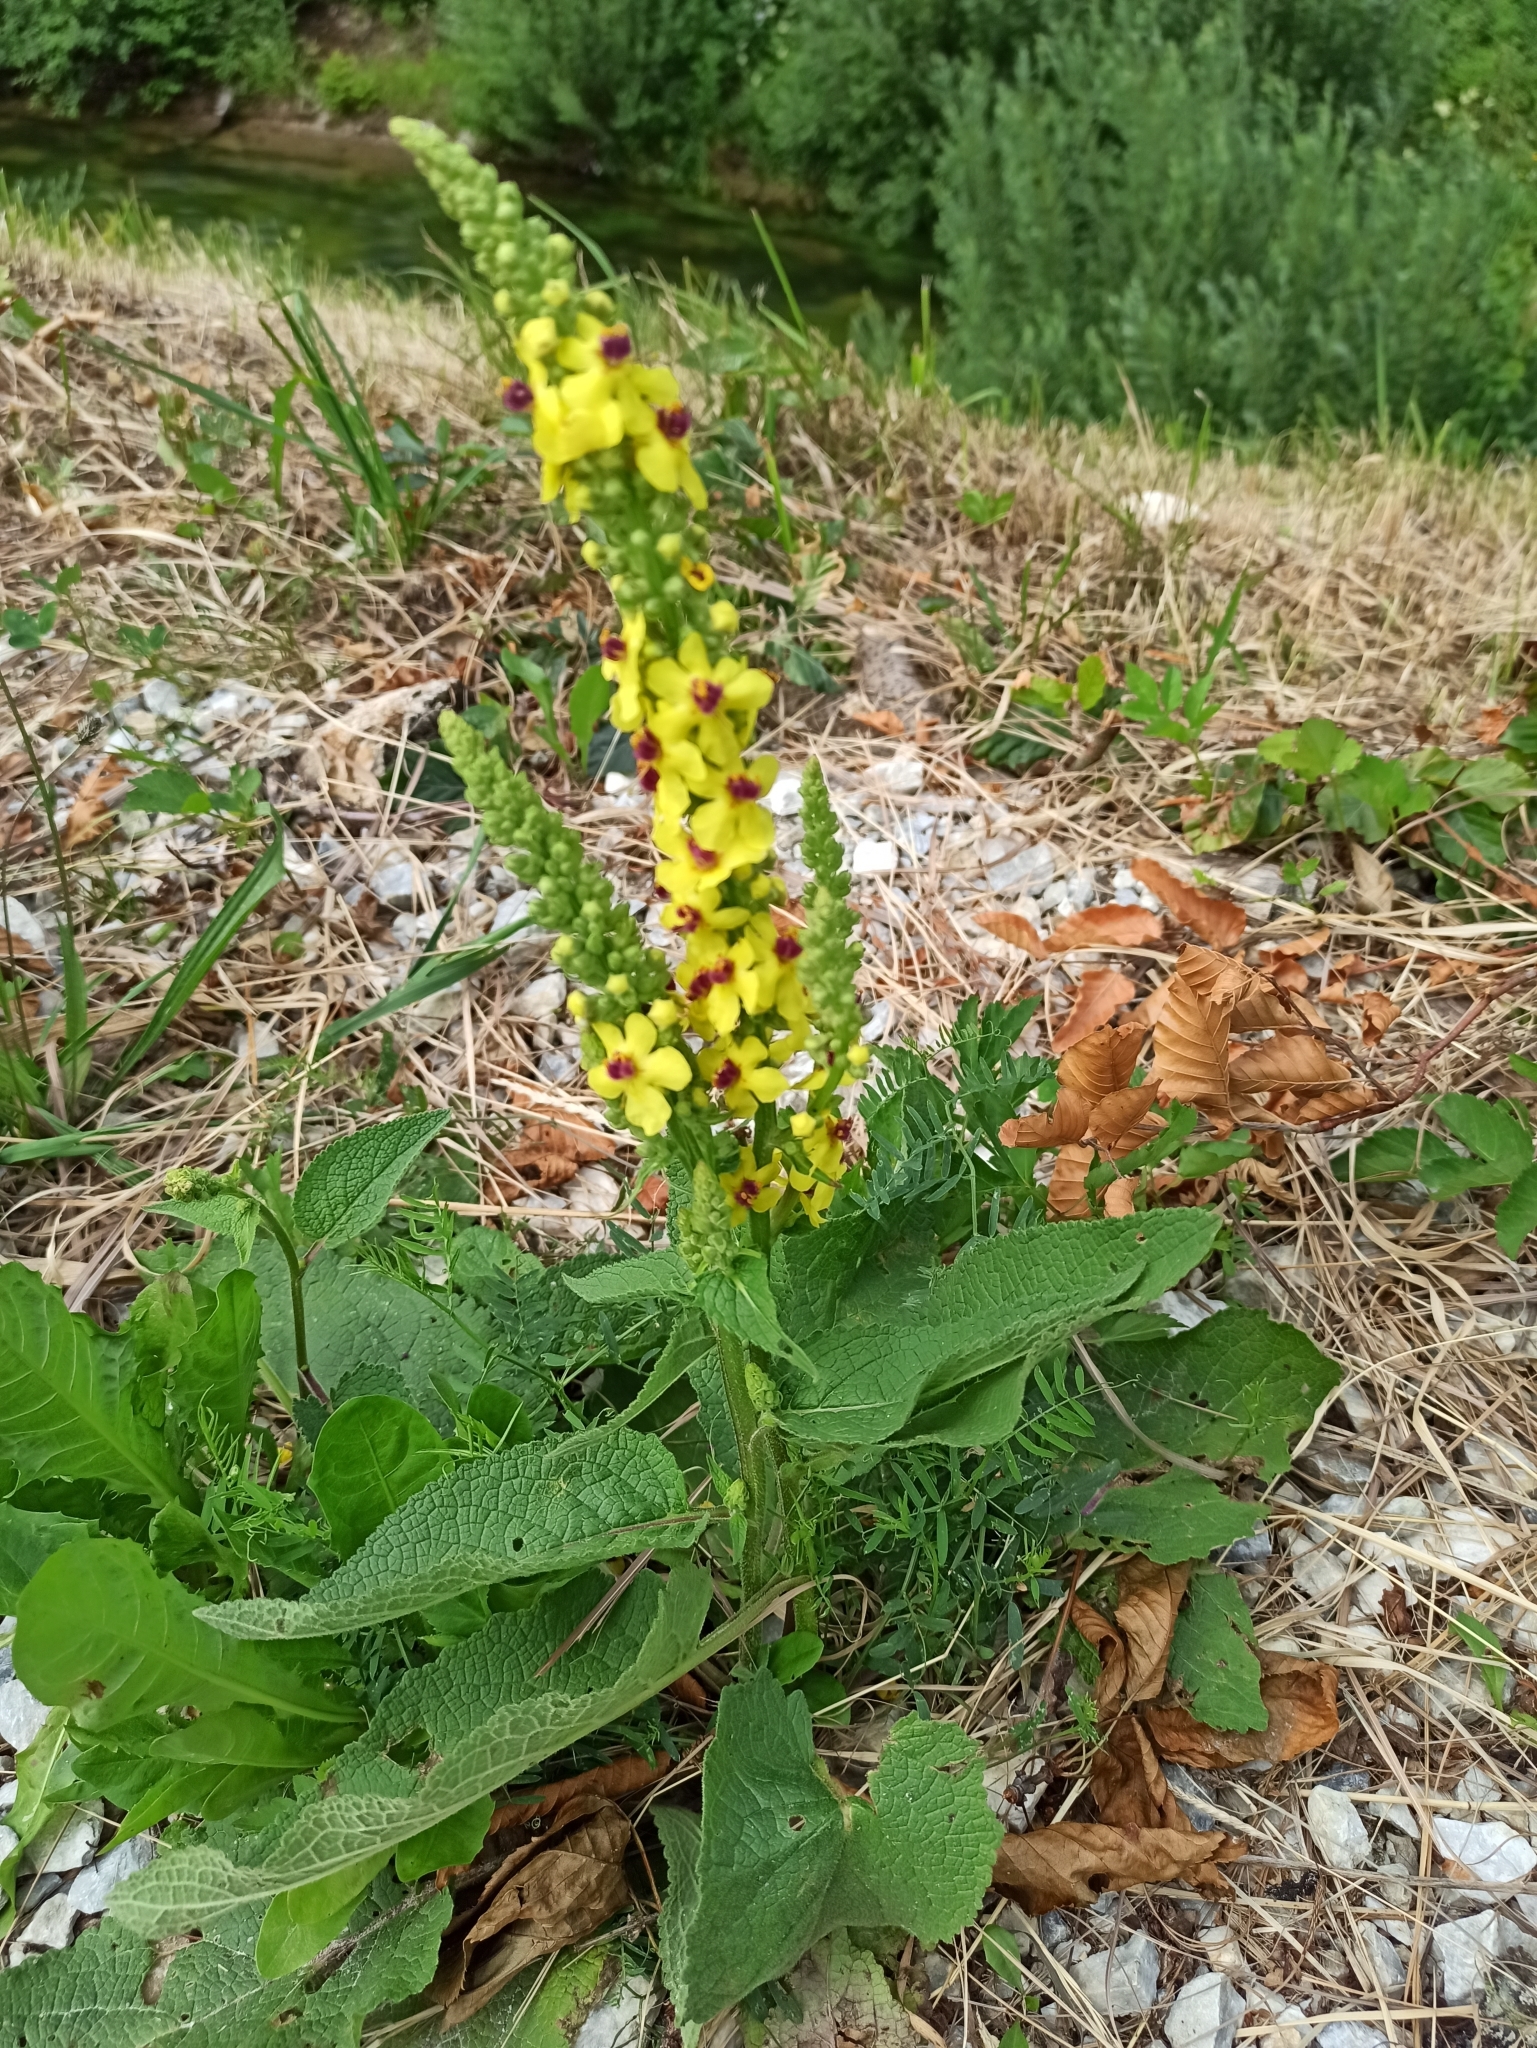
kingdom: Plantae
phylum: Tracheophyta
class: Magnoliopsida
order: Lamiales
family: Scrophulariaceae
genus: Verbascum
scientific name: Verbascum nigrum
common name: Dark mullein
